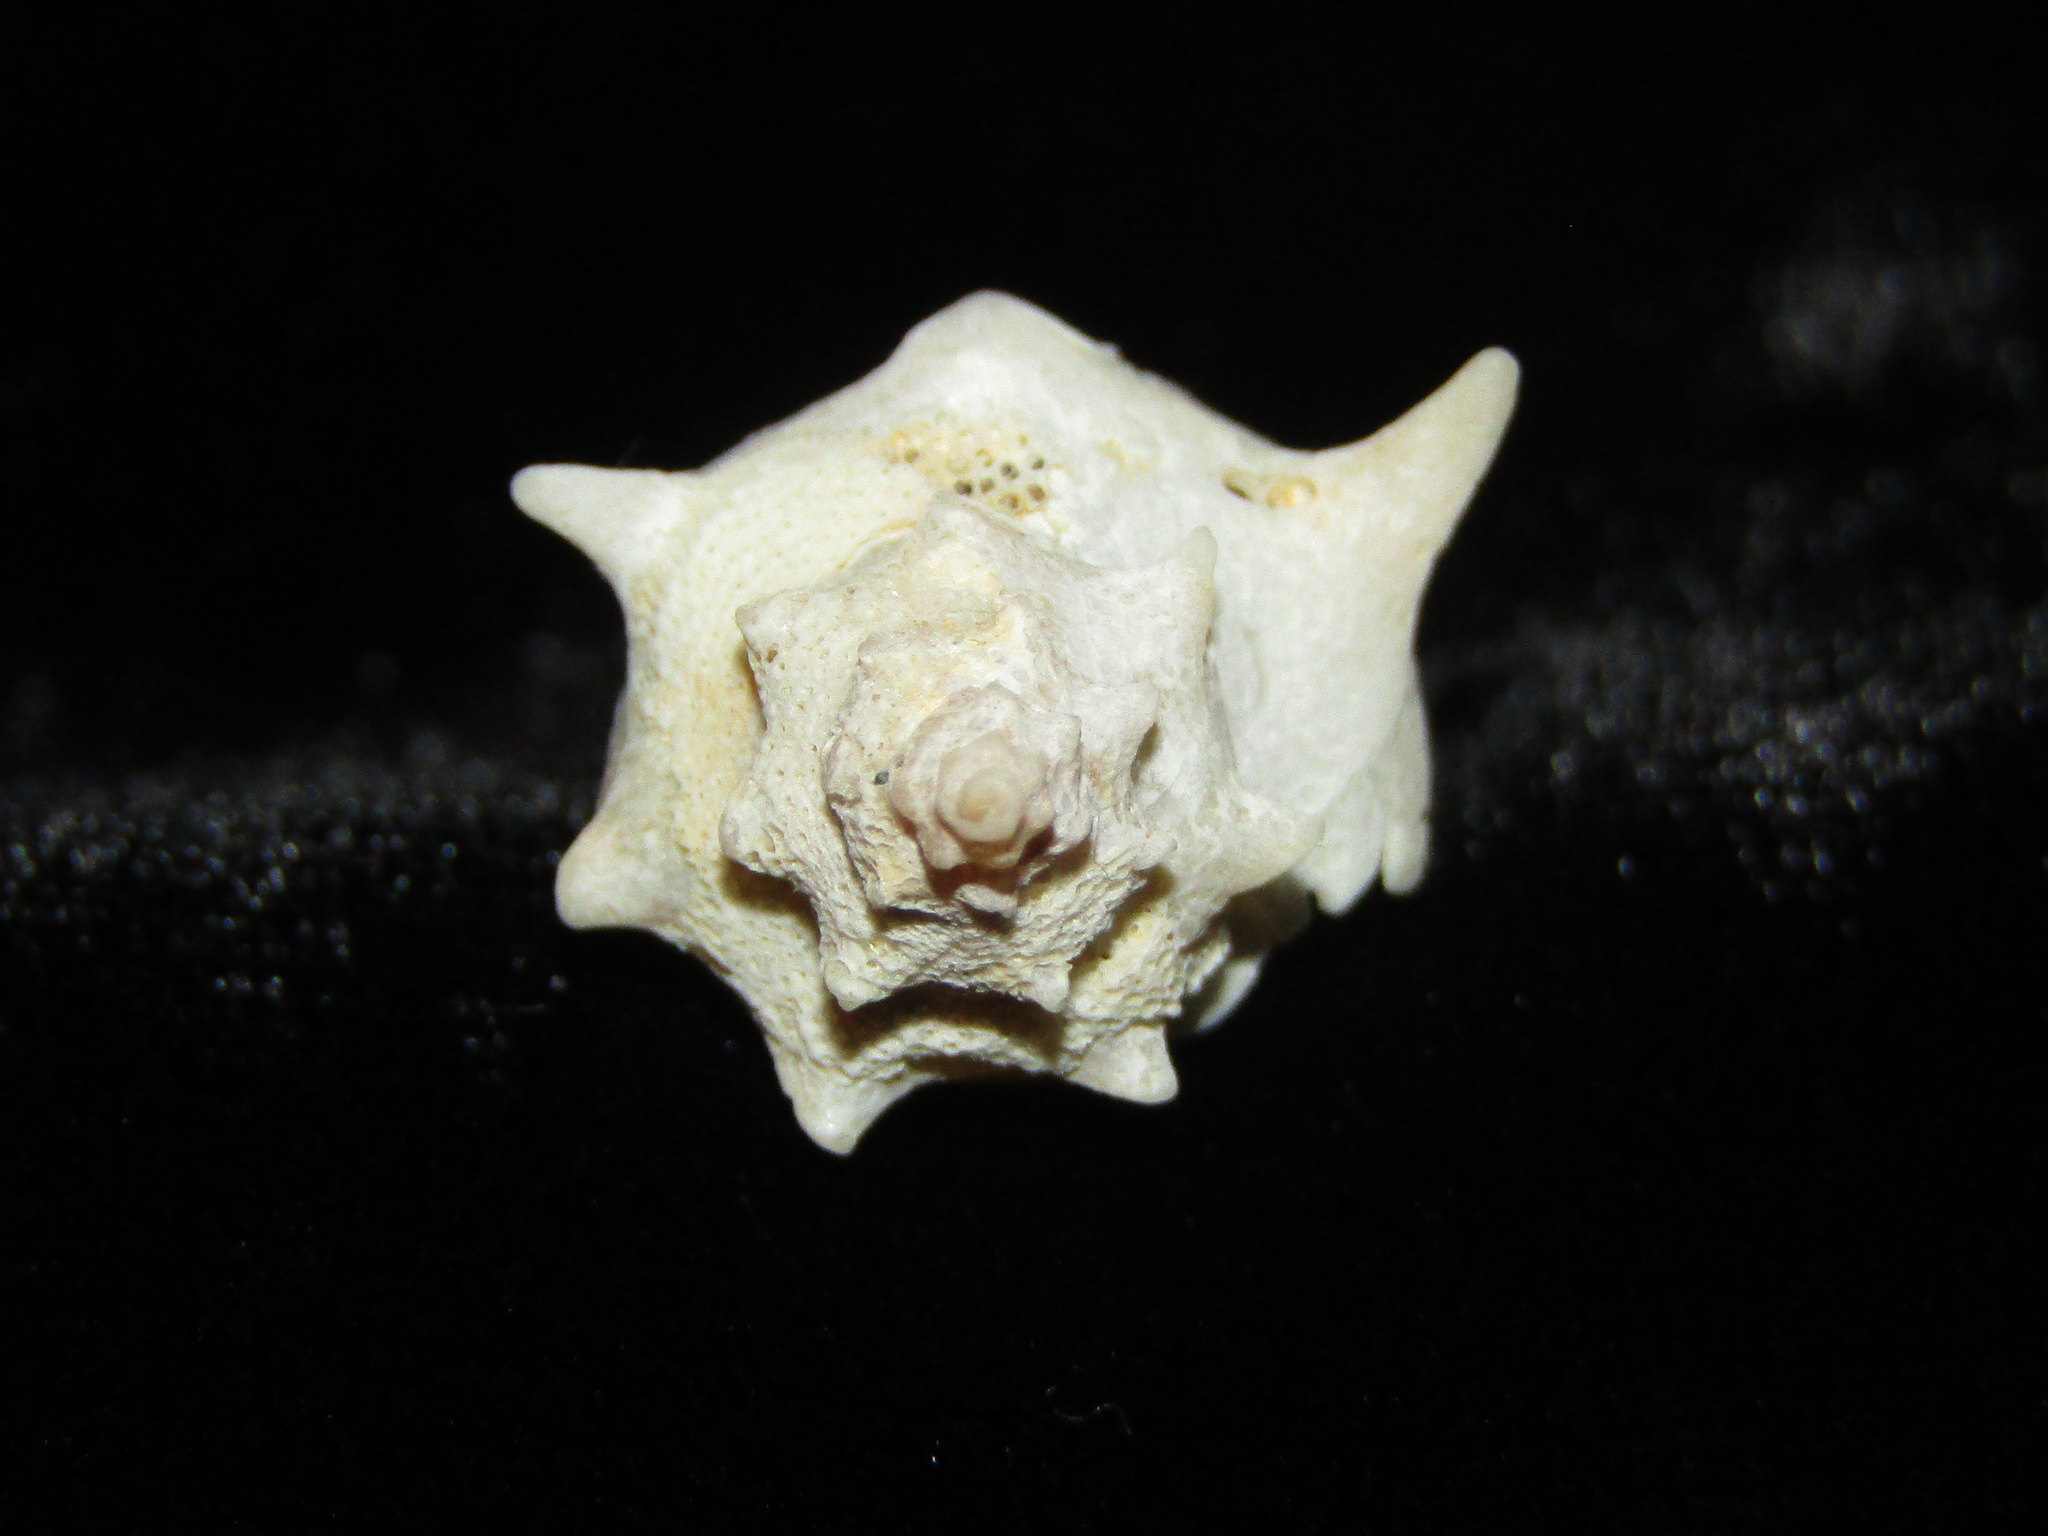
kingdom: Animalia
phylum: Mollusca
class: Gastropoda
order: Neogastropoda
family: Muricidae
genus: Poirieria
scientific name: Poirieria zelandica
